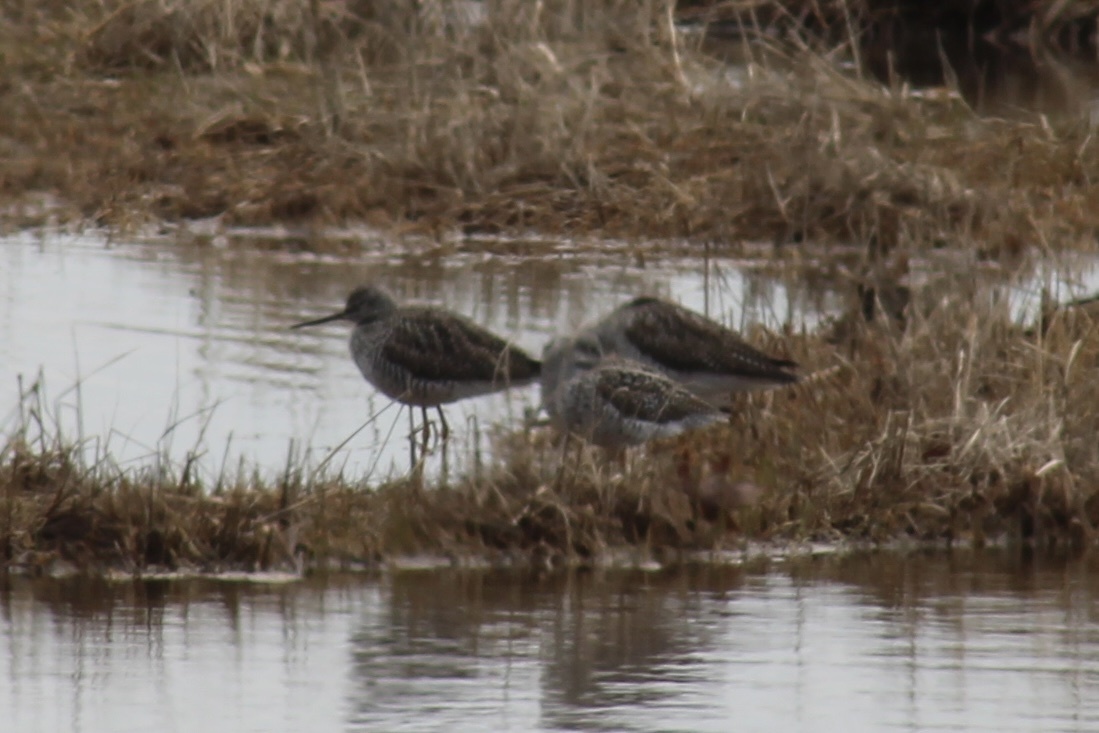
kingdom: Animalia
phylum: Chordata
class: Aves
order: Charadriiformes
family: Scolopacidae
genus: Tringa
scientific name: Tringa melanoleuca
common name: Greater yellowlegs
